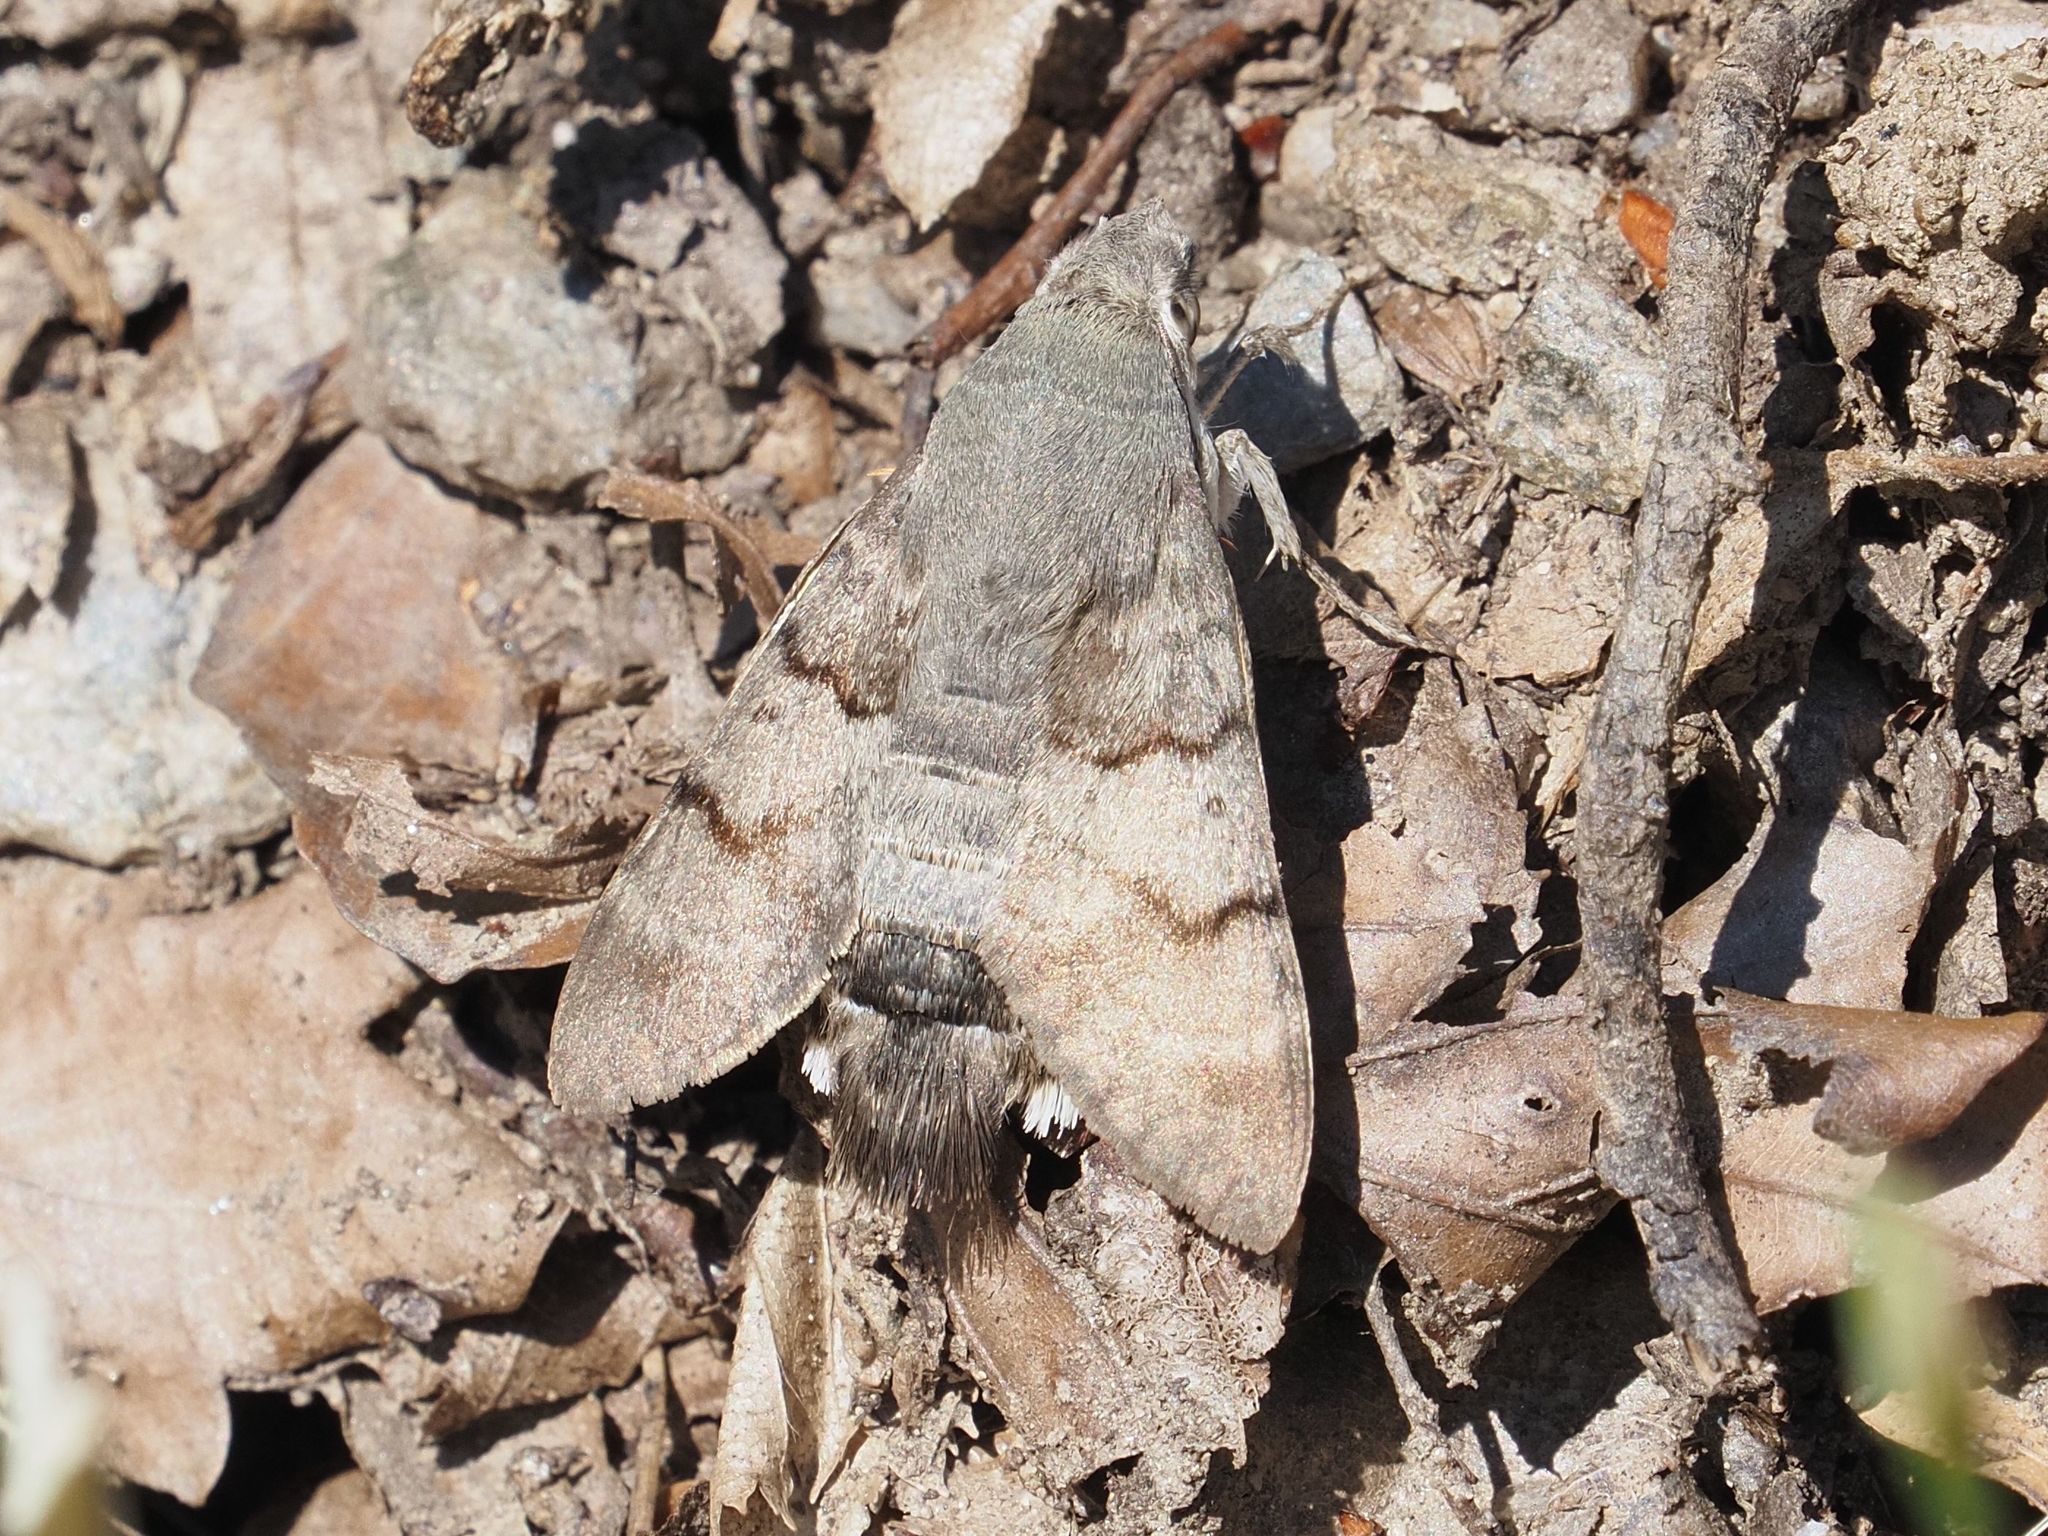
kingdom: Animalia
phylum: Arthropoda
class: Insecta
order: Lepidoptera
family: Sphingidae
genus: Macroglossum
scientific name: Macroglossum stellatarum
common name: Humming-bird hawk-moth
